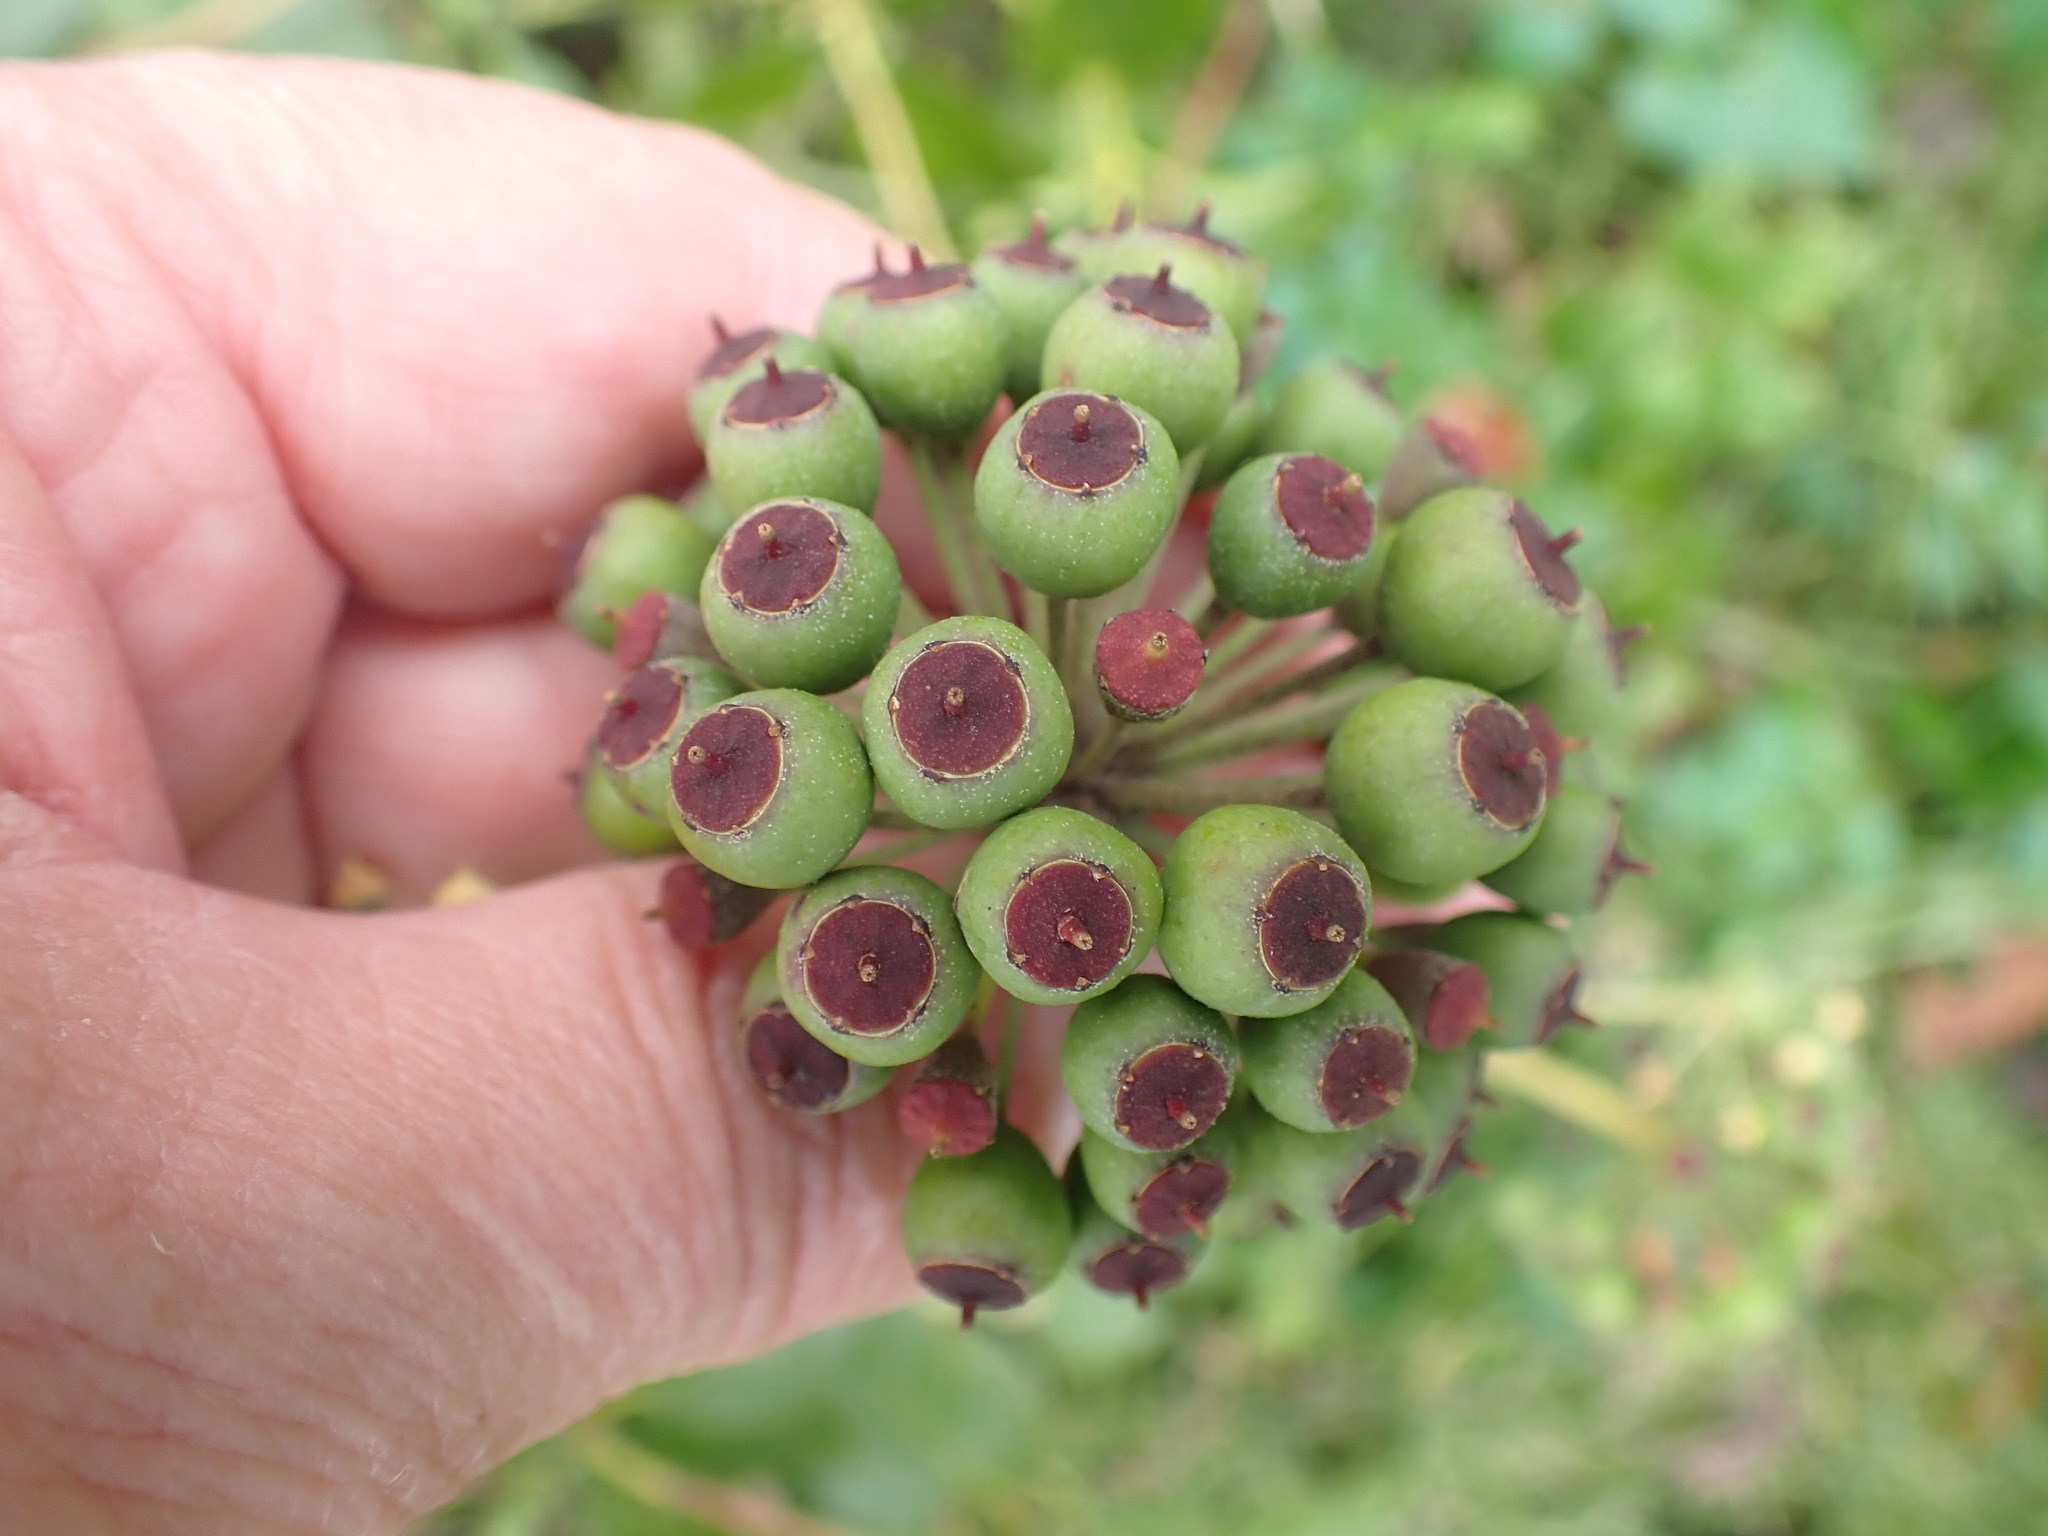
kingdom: Plantae
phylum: Tracheophyta
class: Magnoliopsida
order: Apiales
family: Araliaceae
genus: Hedera
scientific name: Hedera helix
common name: Ivy
